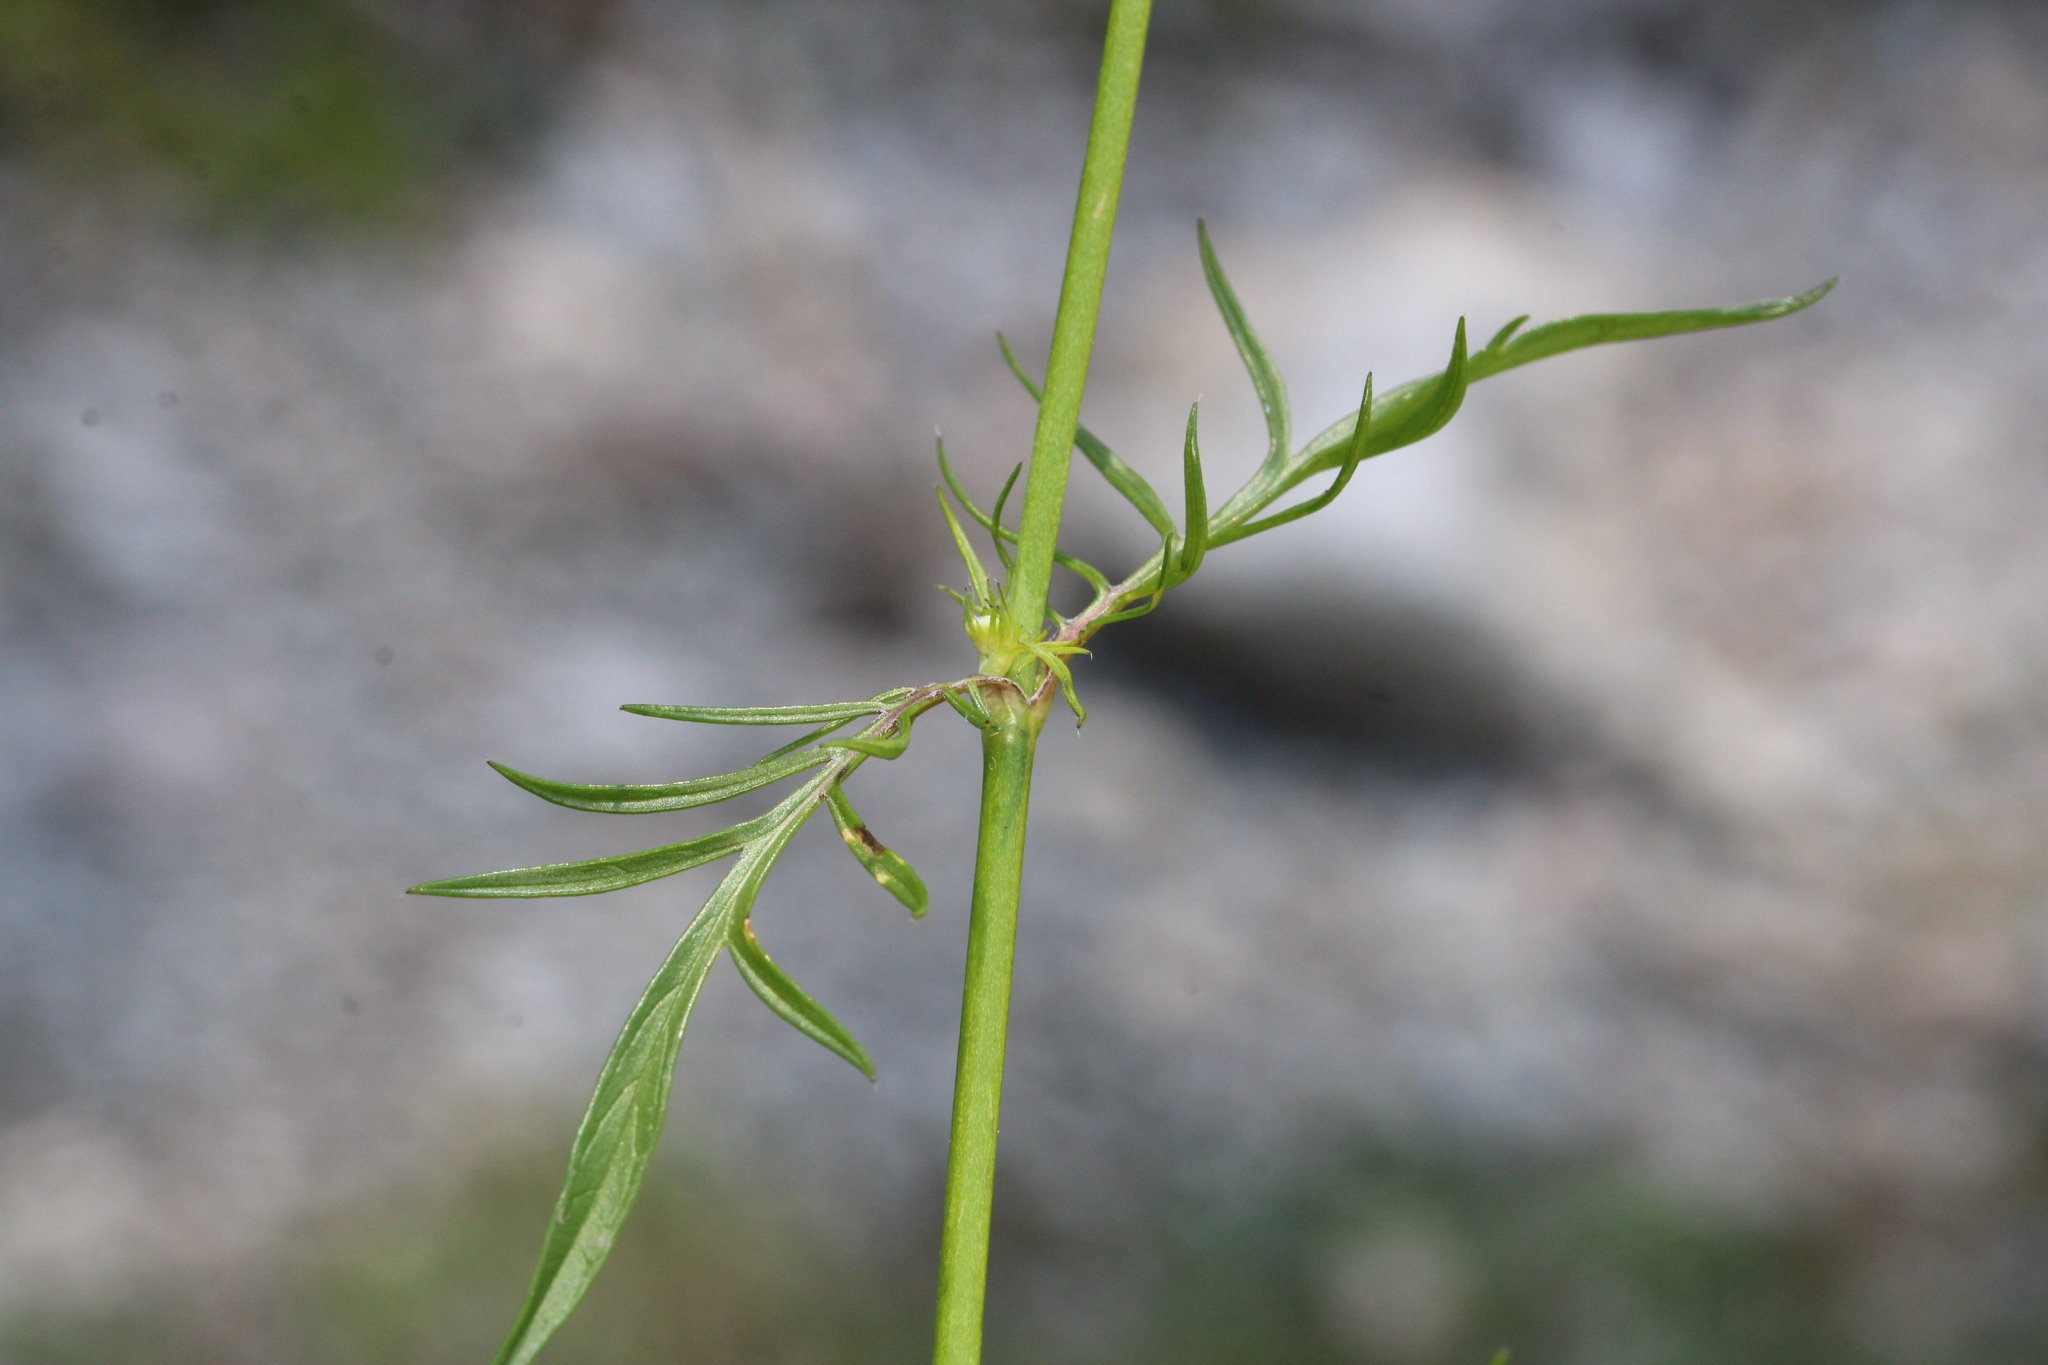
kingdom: Plantae
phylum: Tracheophyta
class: Magnoliopsida
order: Dipsacales
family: Caprifoliaceae
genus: Scabiosa
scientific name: Scabiosa lucida
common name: Shining scabious
